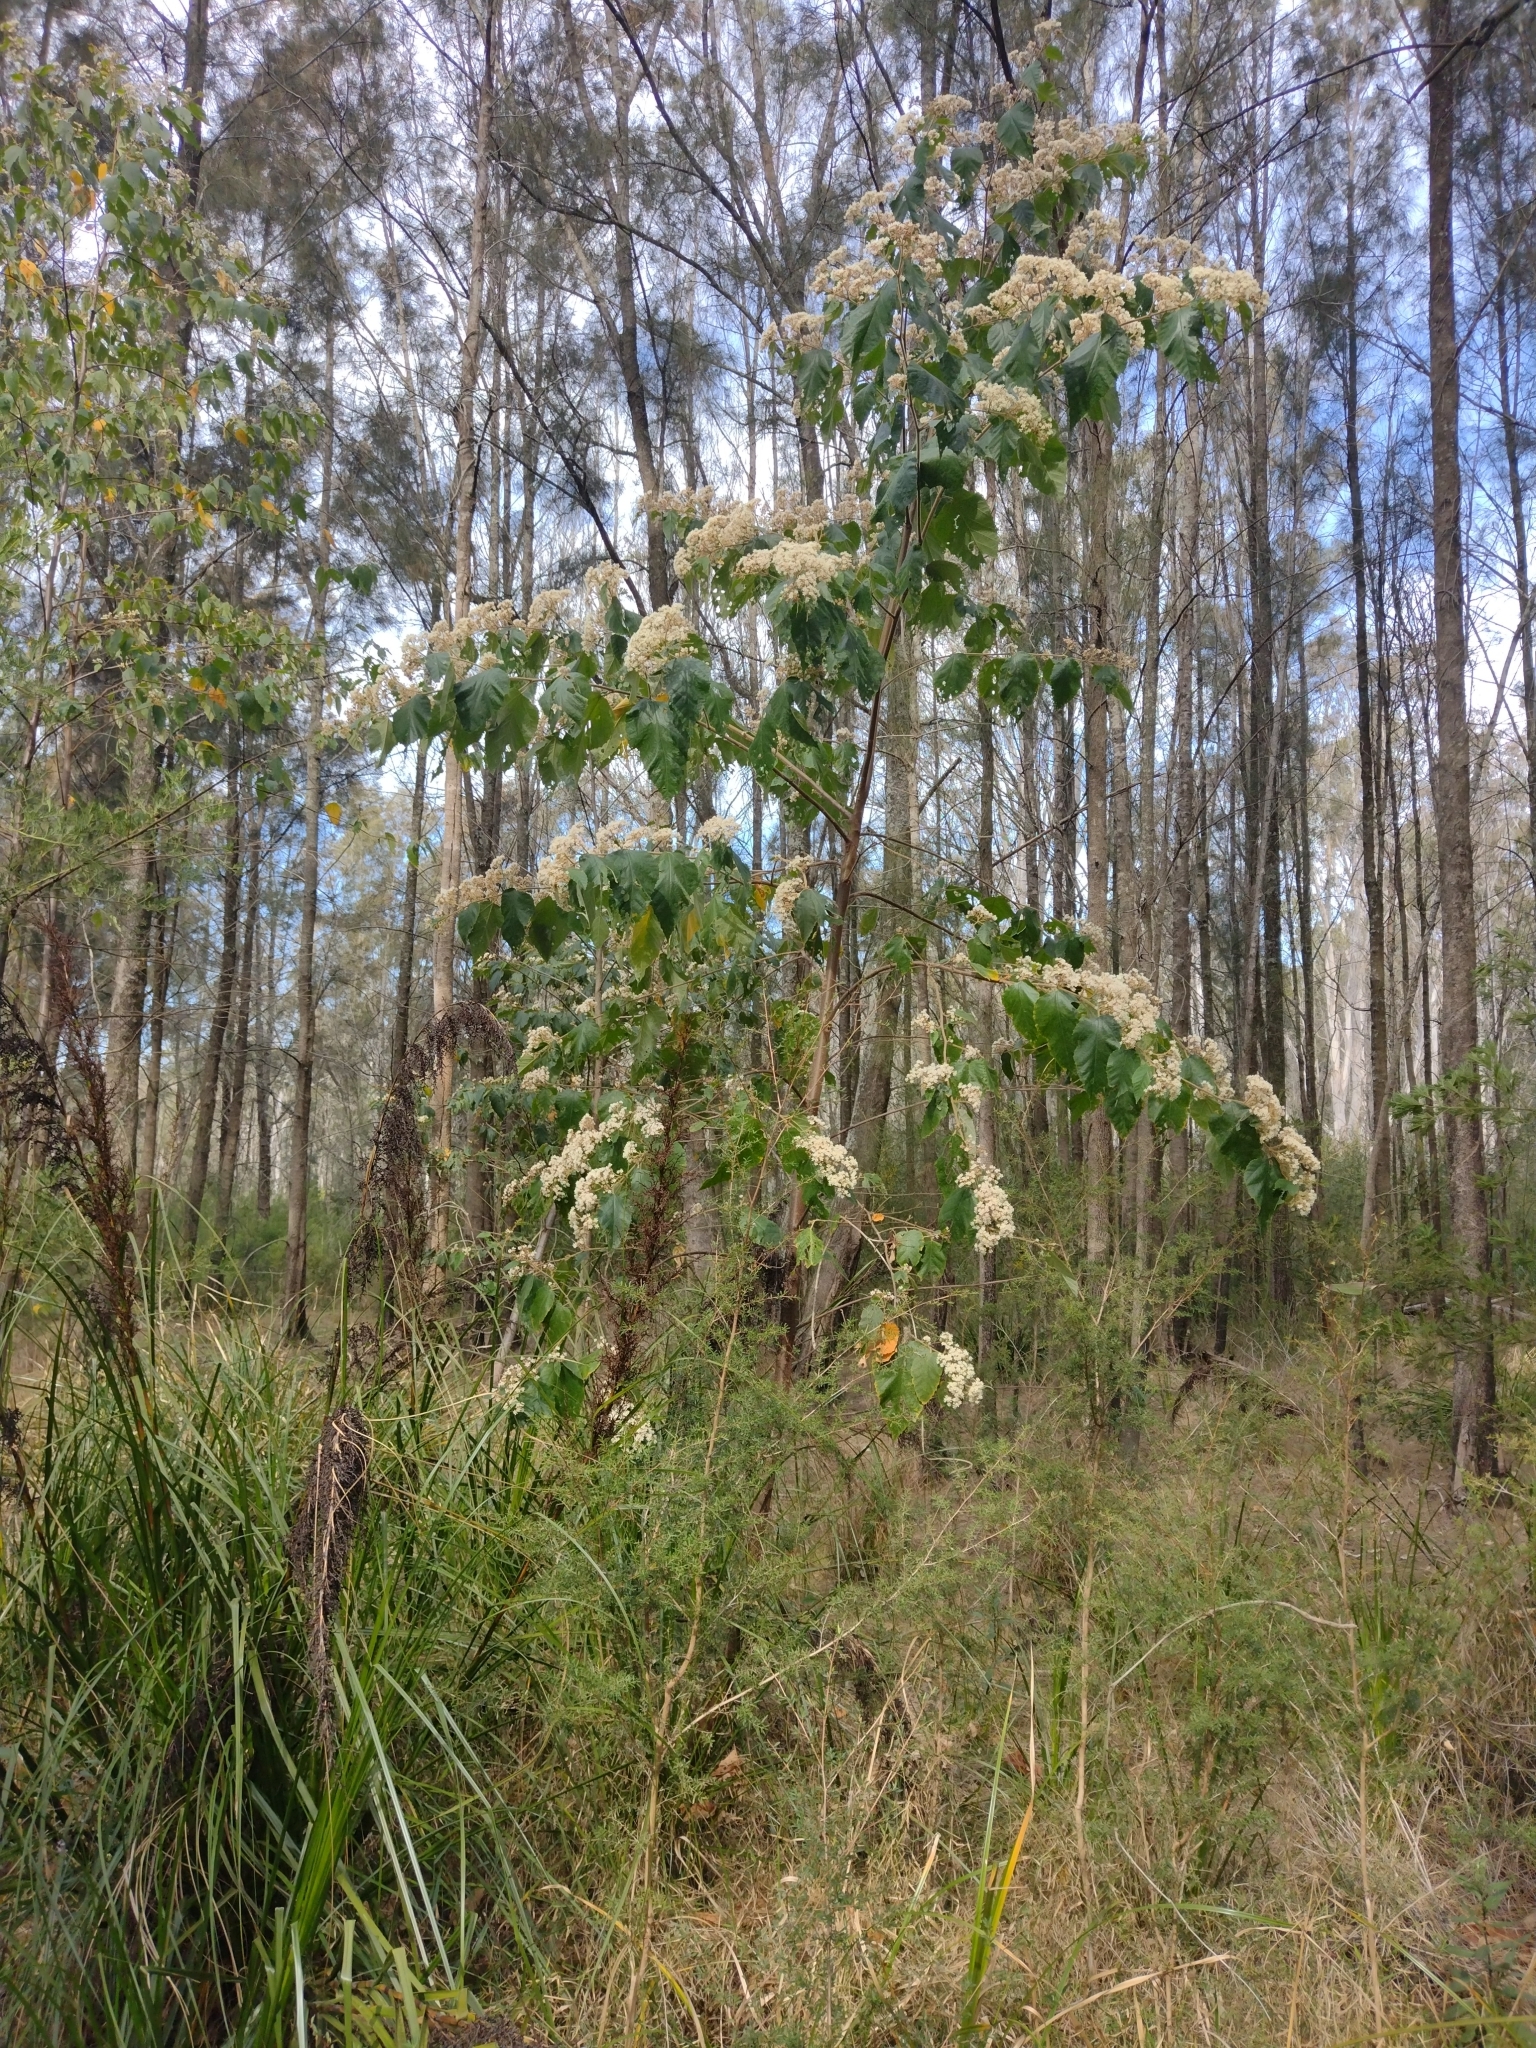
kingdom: Plantae
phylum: Tracheophyta
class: Magnoliopsida
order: Malvales
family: Malvaceae
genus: Androcalva
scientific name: Androcalva rossii
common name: Native hemp
